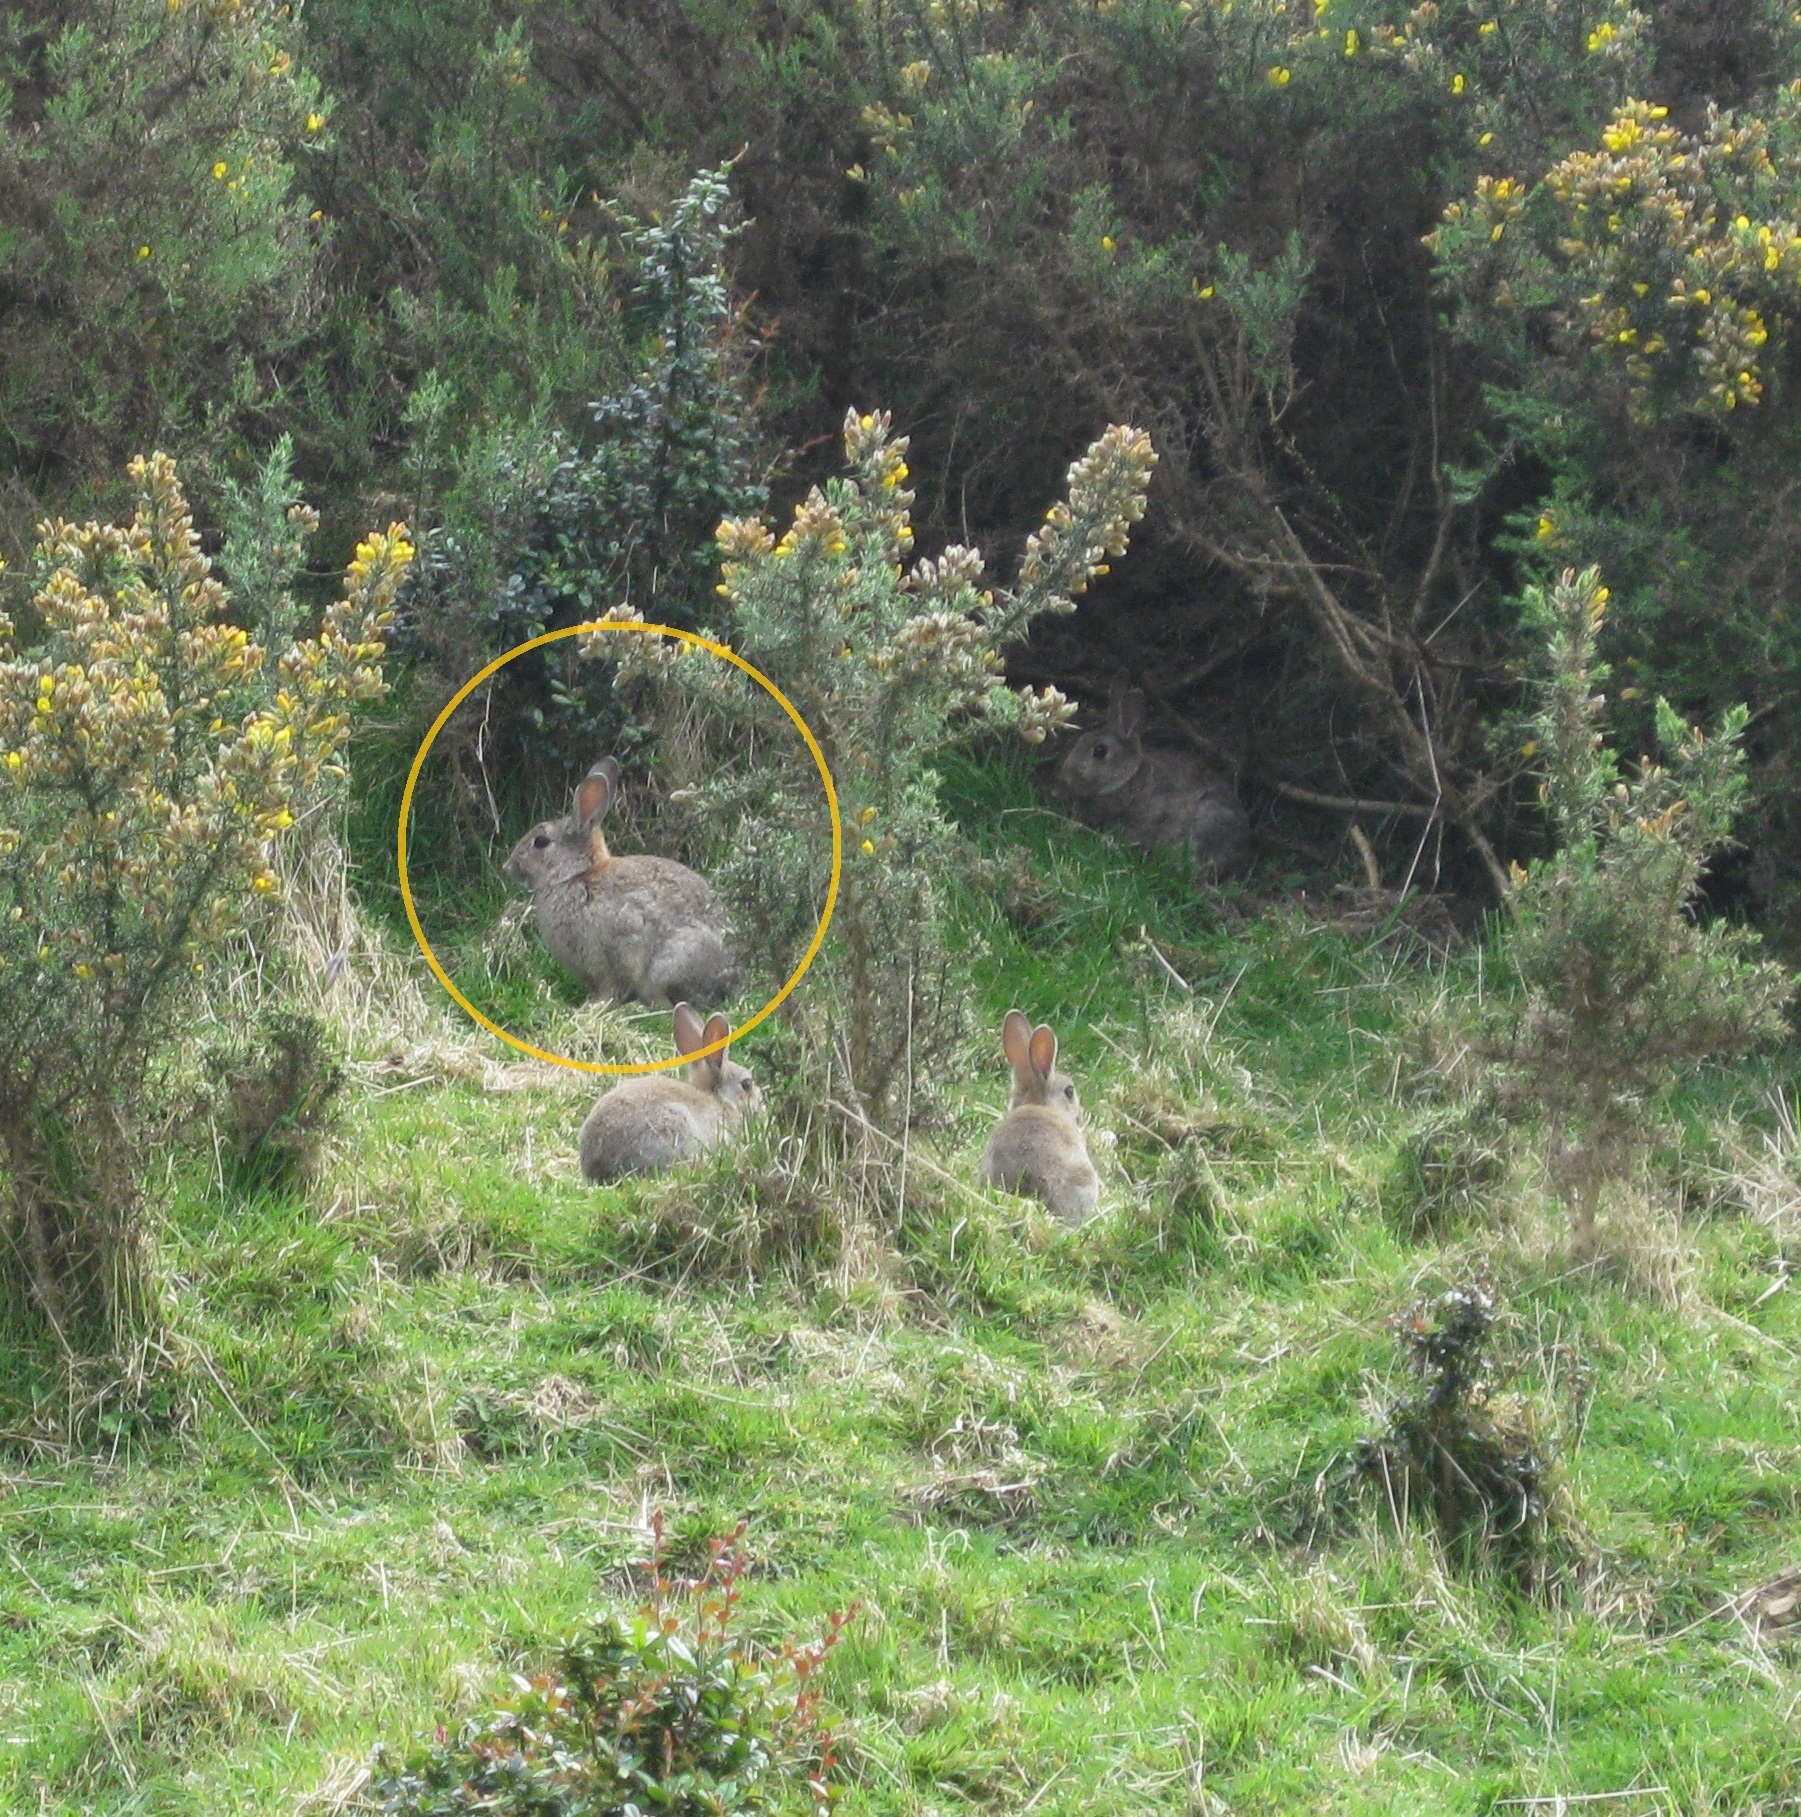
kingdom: Animalia
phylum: Chordata
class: Mammalia
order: Lagomorpha
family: Leporidae
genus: Oryctolagus
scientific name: Oryctolagus cuniculus
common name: European rabbit
